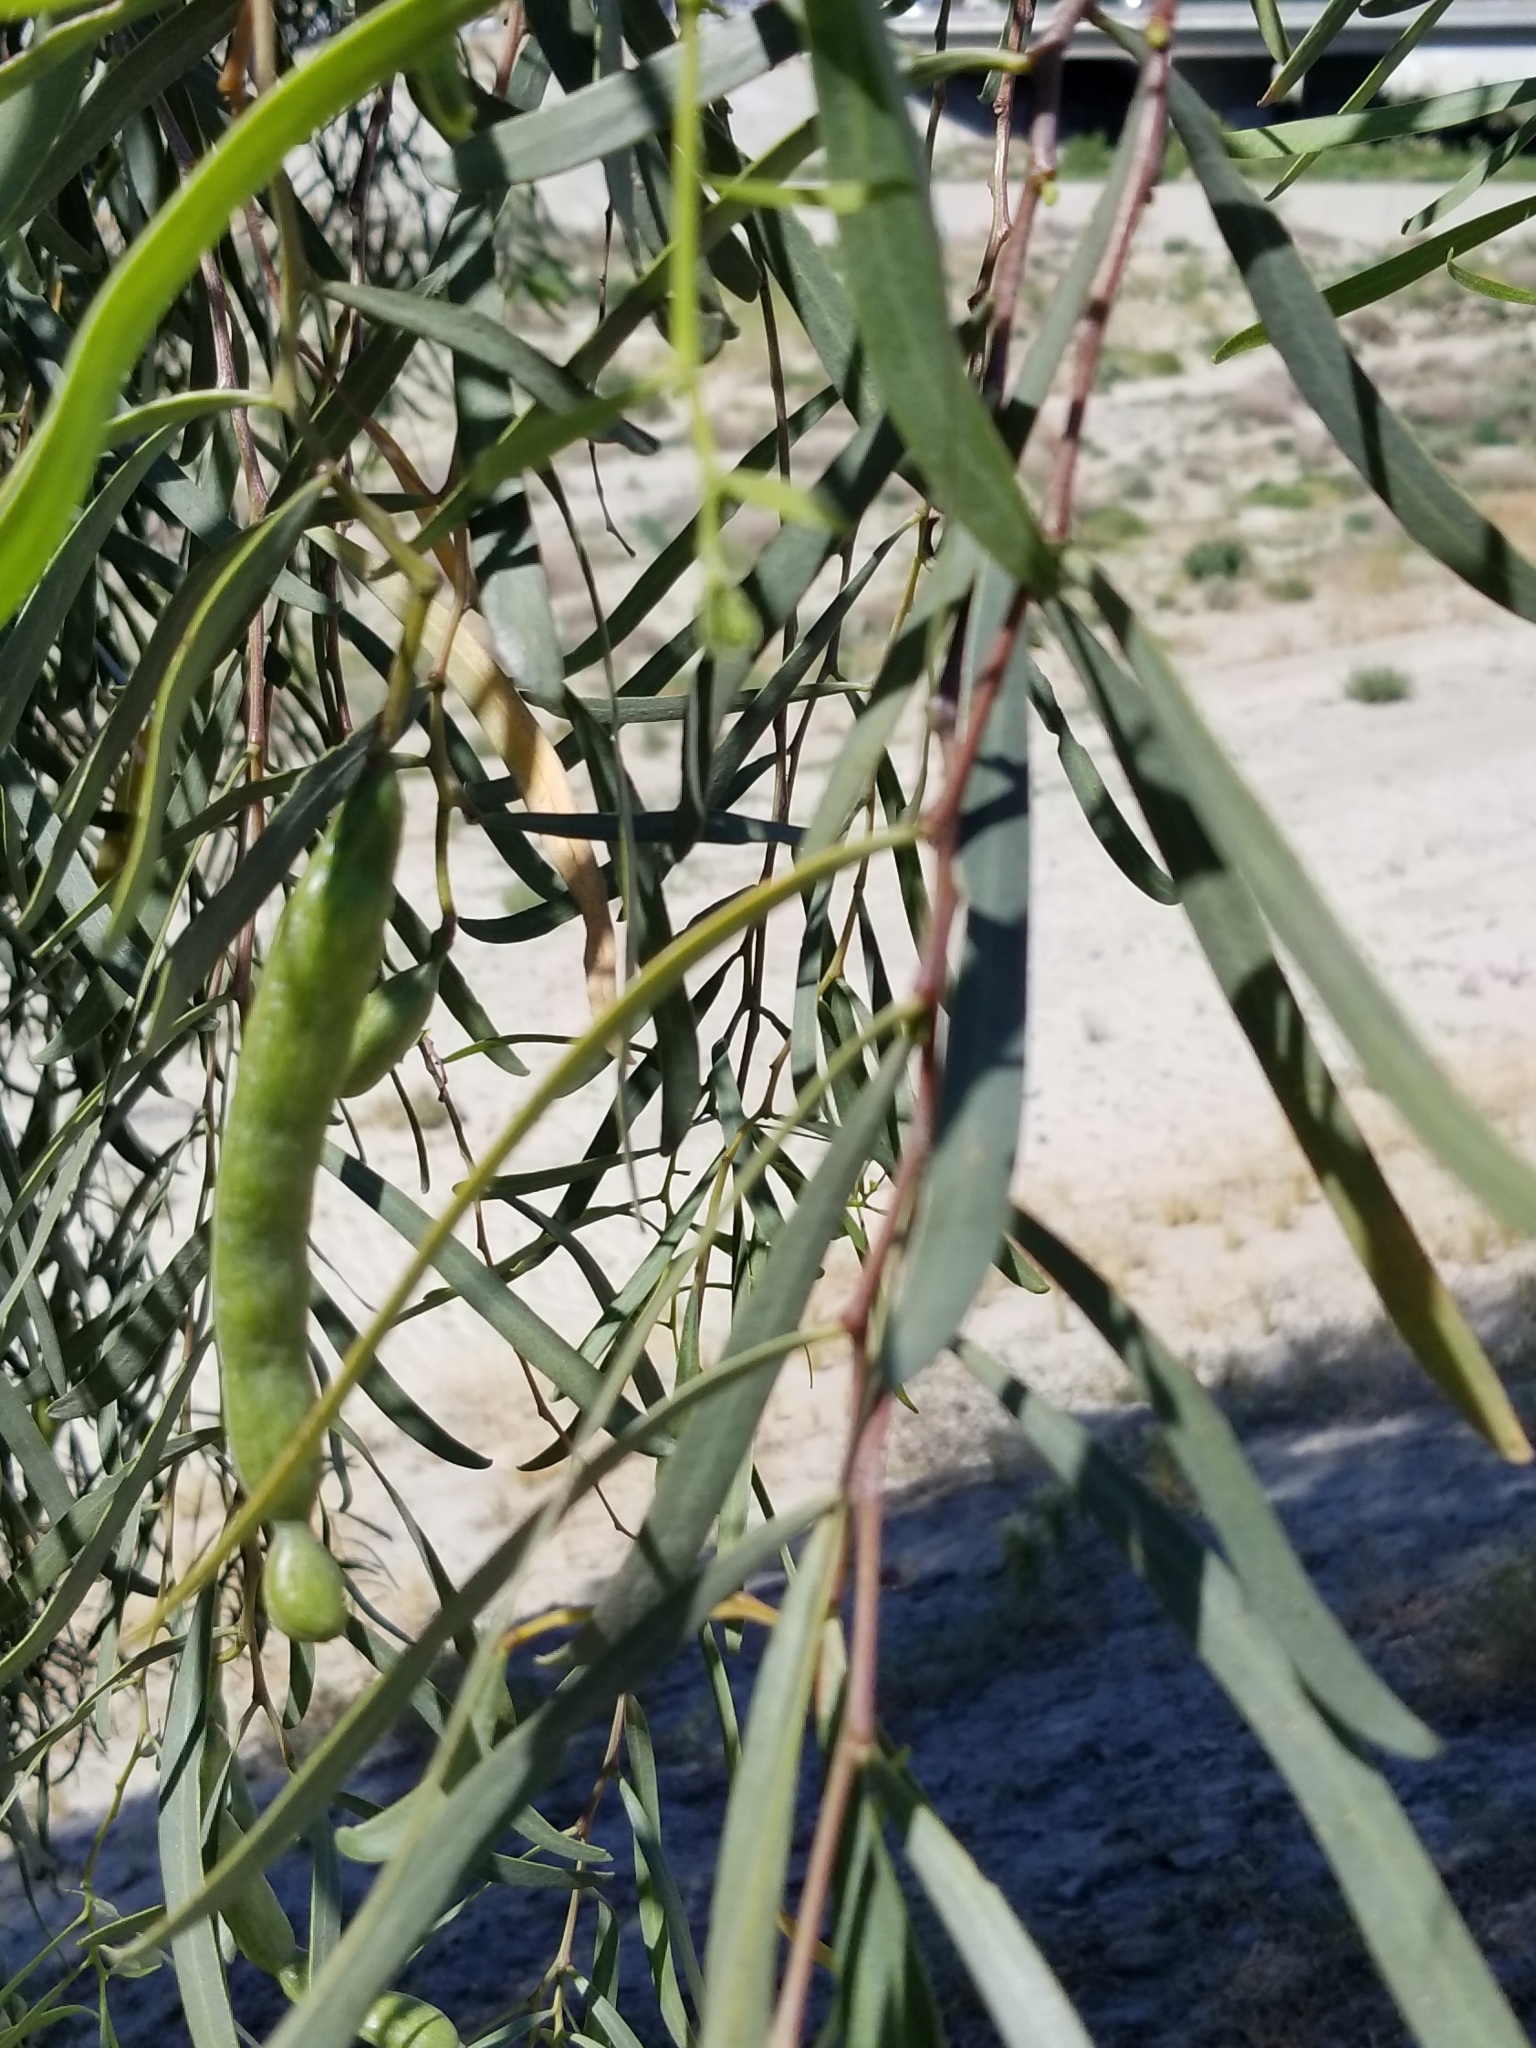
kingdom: Plantae
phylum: Tracheophyta
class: Magnoliopsida
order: Fabales
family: Fabaceae
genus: Acacia
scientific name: Acacia salicina
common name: Broughton willow wattle
